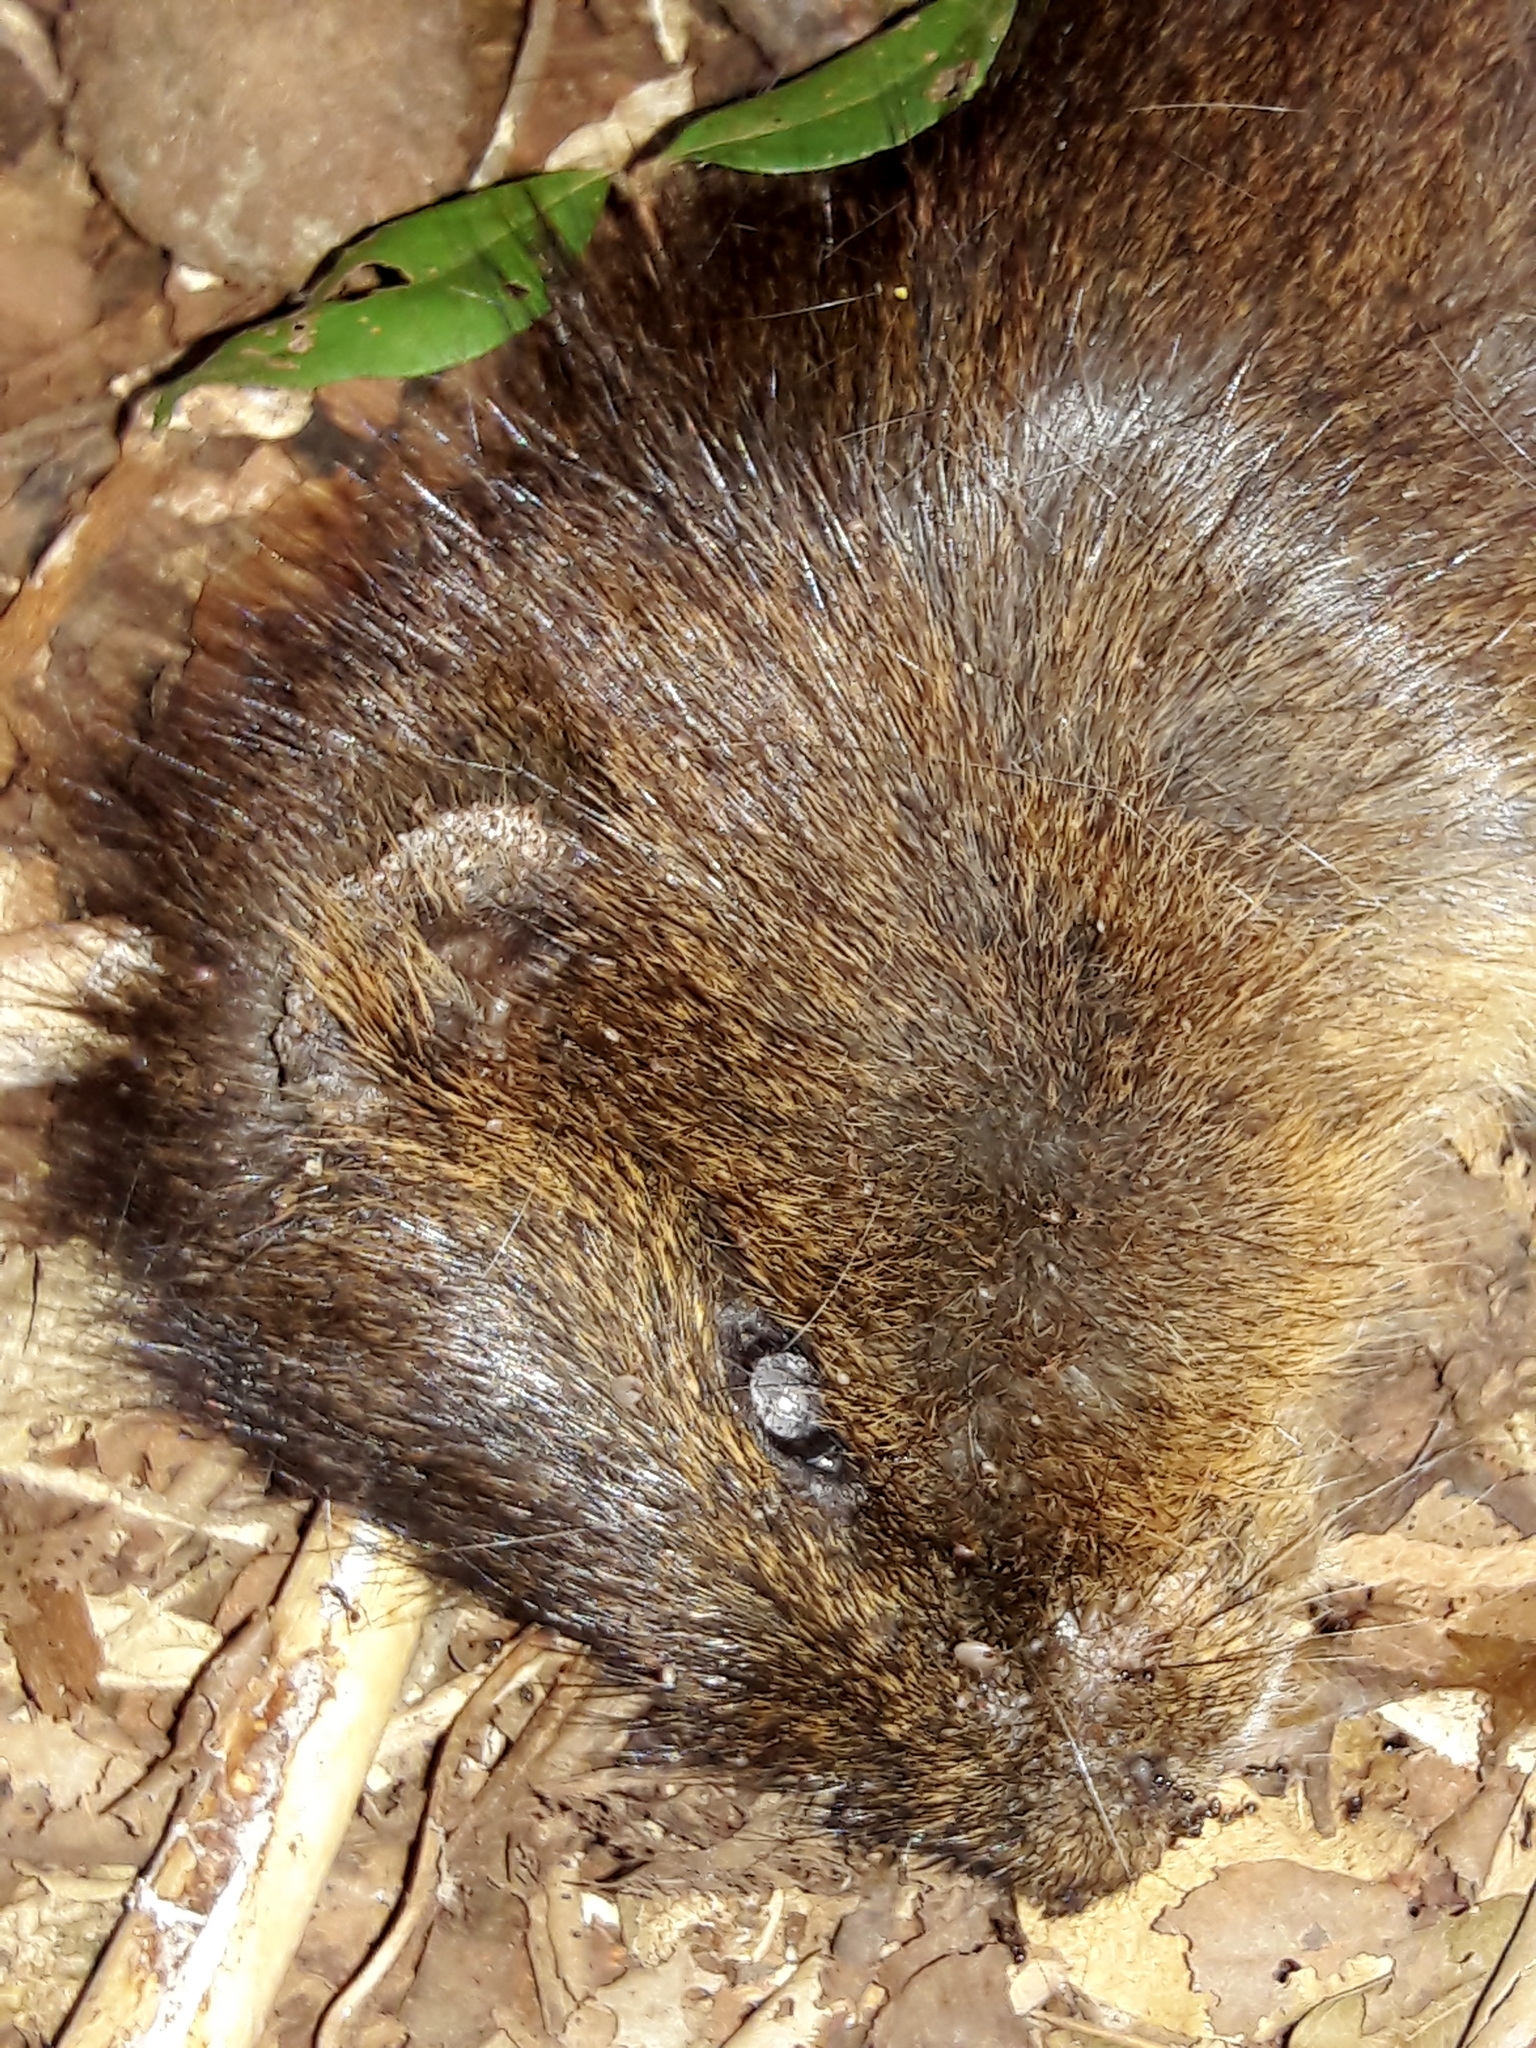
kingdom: Animalia
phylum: Chordata
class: Mammalia
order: Rodentia
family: Caviidae
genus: Cavia
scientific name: Cavia aperea
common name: Brazilian guinea pig
